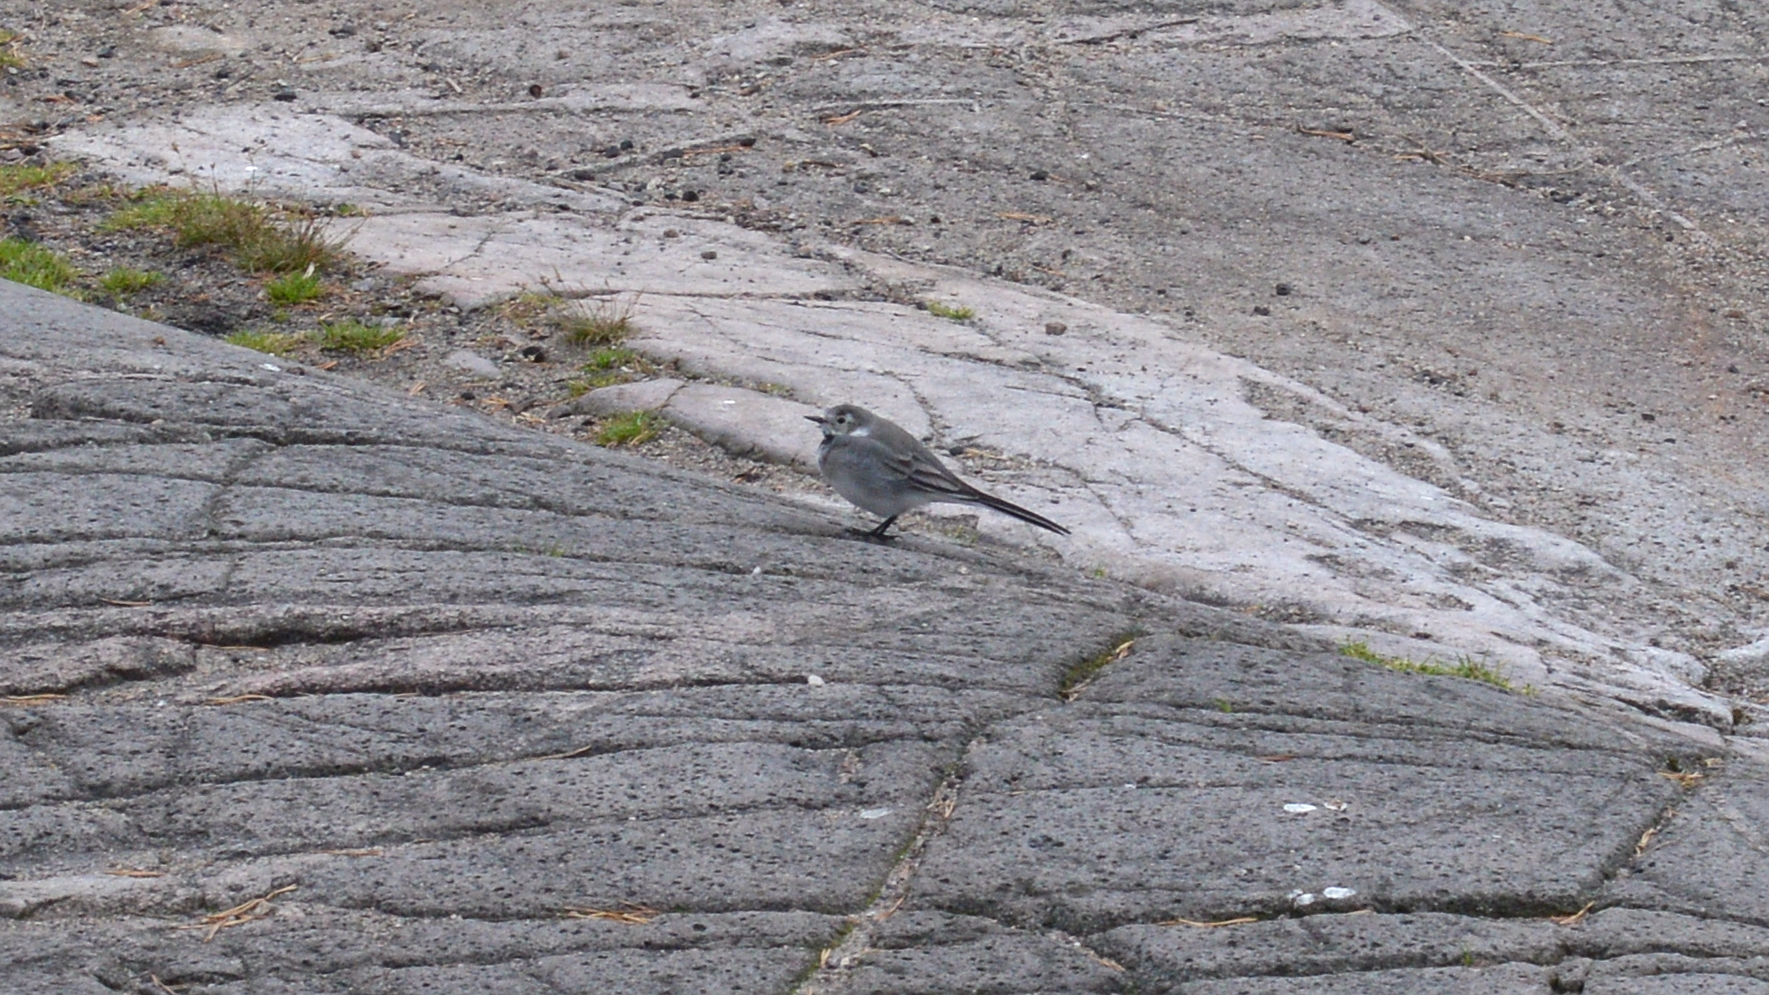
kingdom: Animalia
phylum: Chordata
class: Aves
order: Passeriformes
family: Motacillidae
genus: Motacilla
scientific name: Motacilla alba
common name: White wagtail
